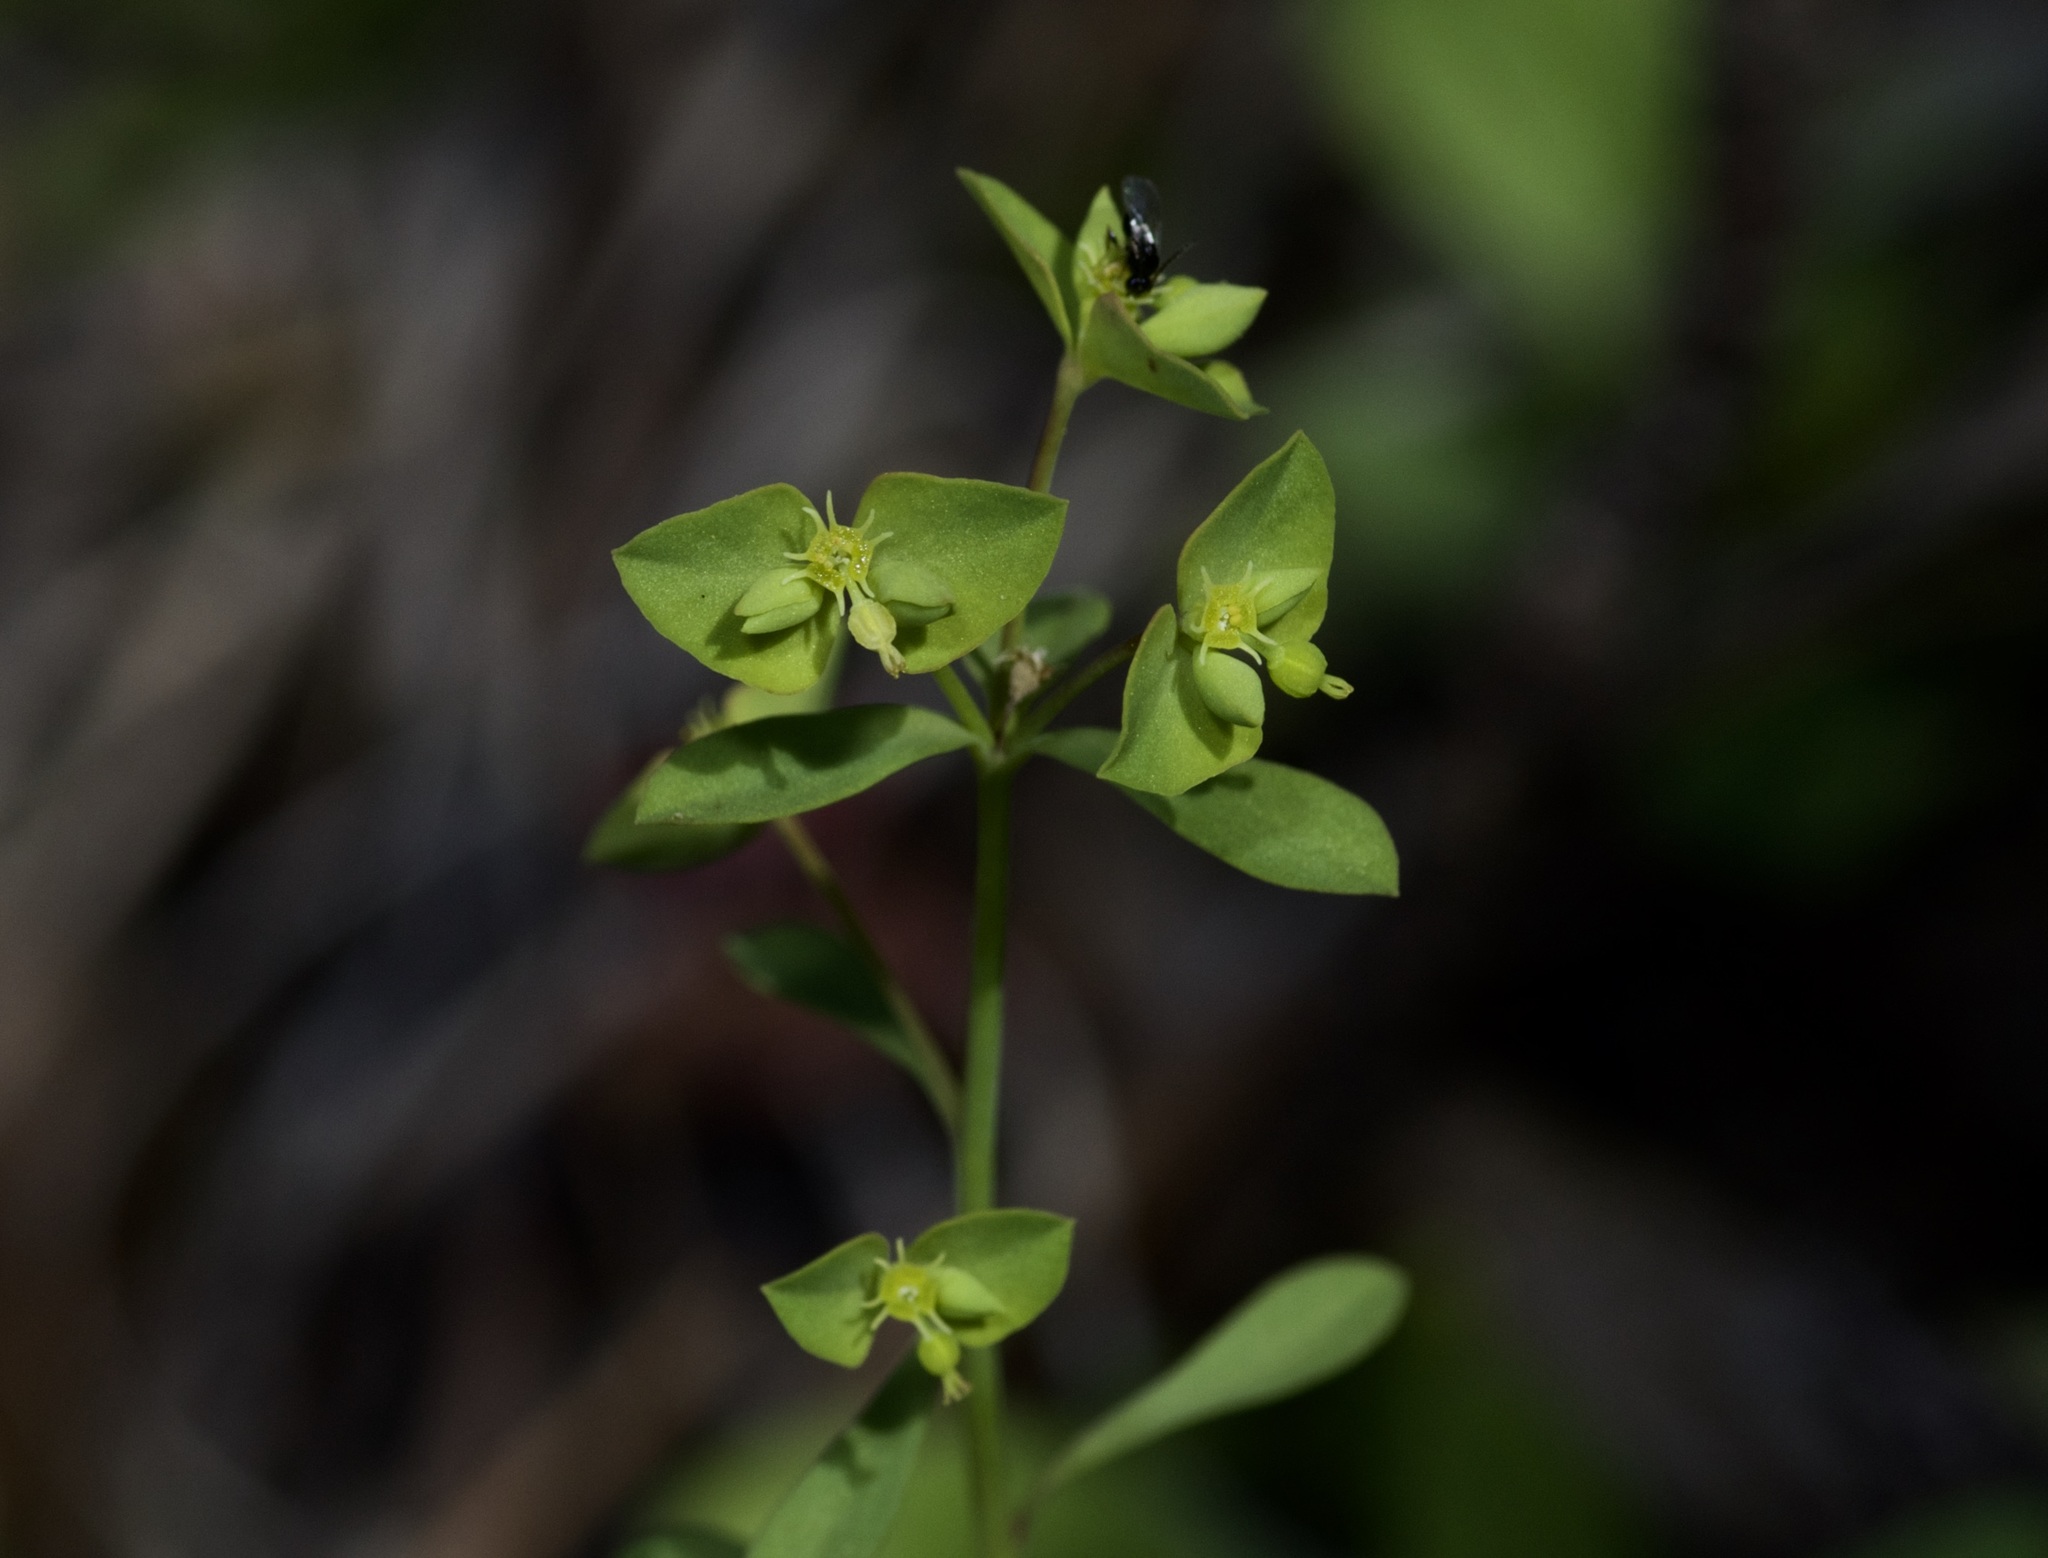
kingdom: Plantae
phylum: Tracheophyta
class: Magnoliopsida
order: Malpighiales
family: Euphorbiaceae
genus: Euphorbia
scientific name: Euphorbia tetrapora
